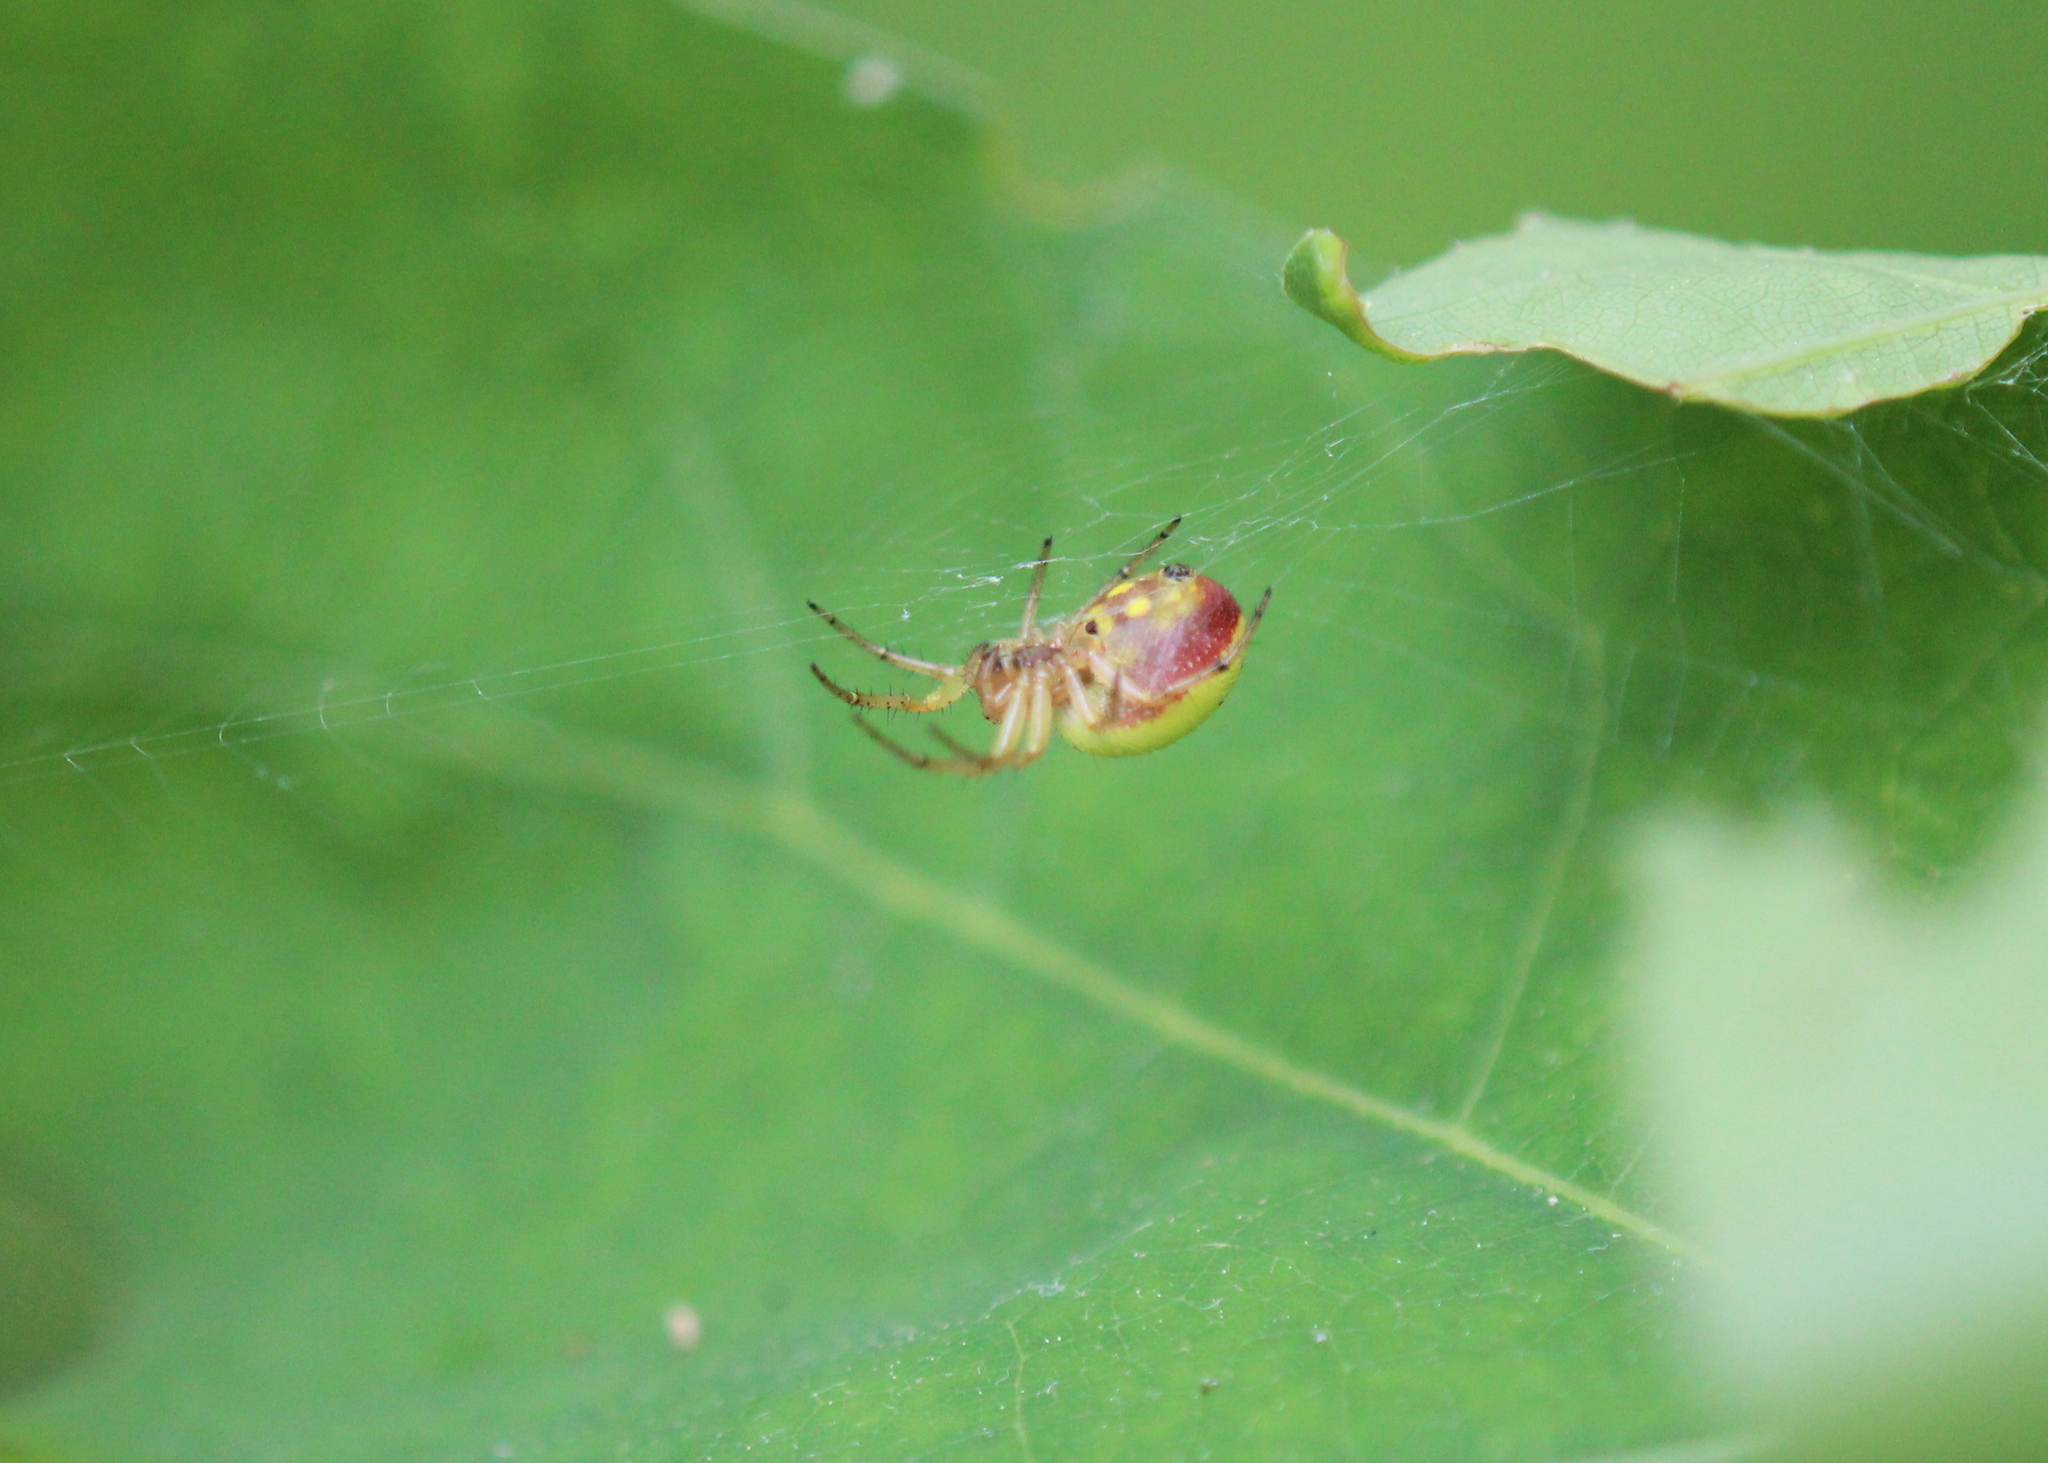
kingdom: Animalia
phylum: Arthropoda
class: Arachnida
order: Araneae
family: Araneidae
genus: Araniella
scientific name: Araniella displicata
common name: Sixspotted orb weaver
